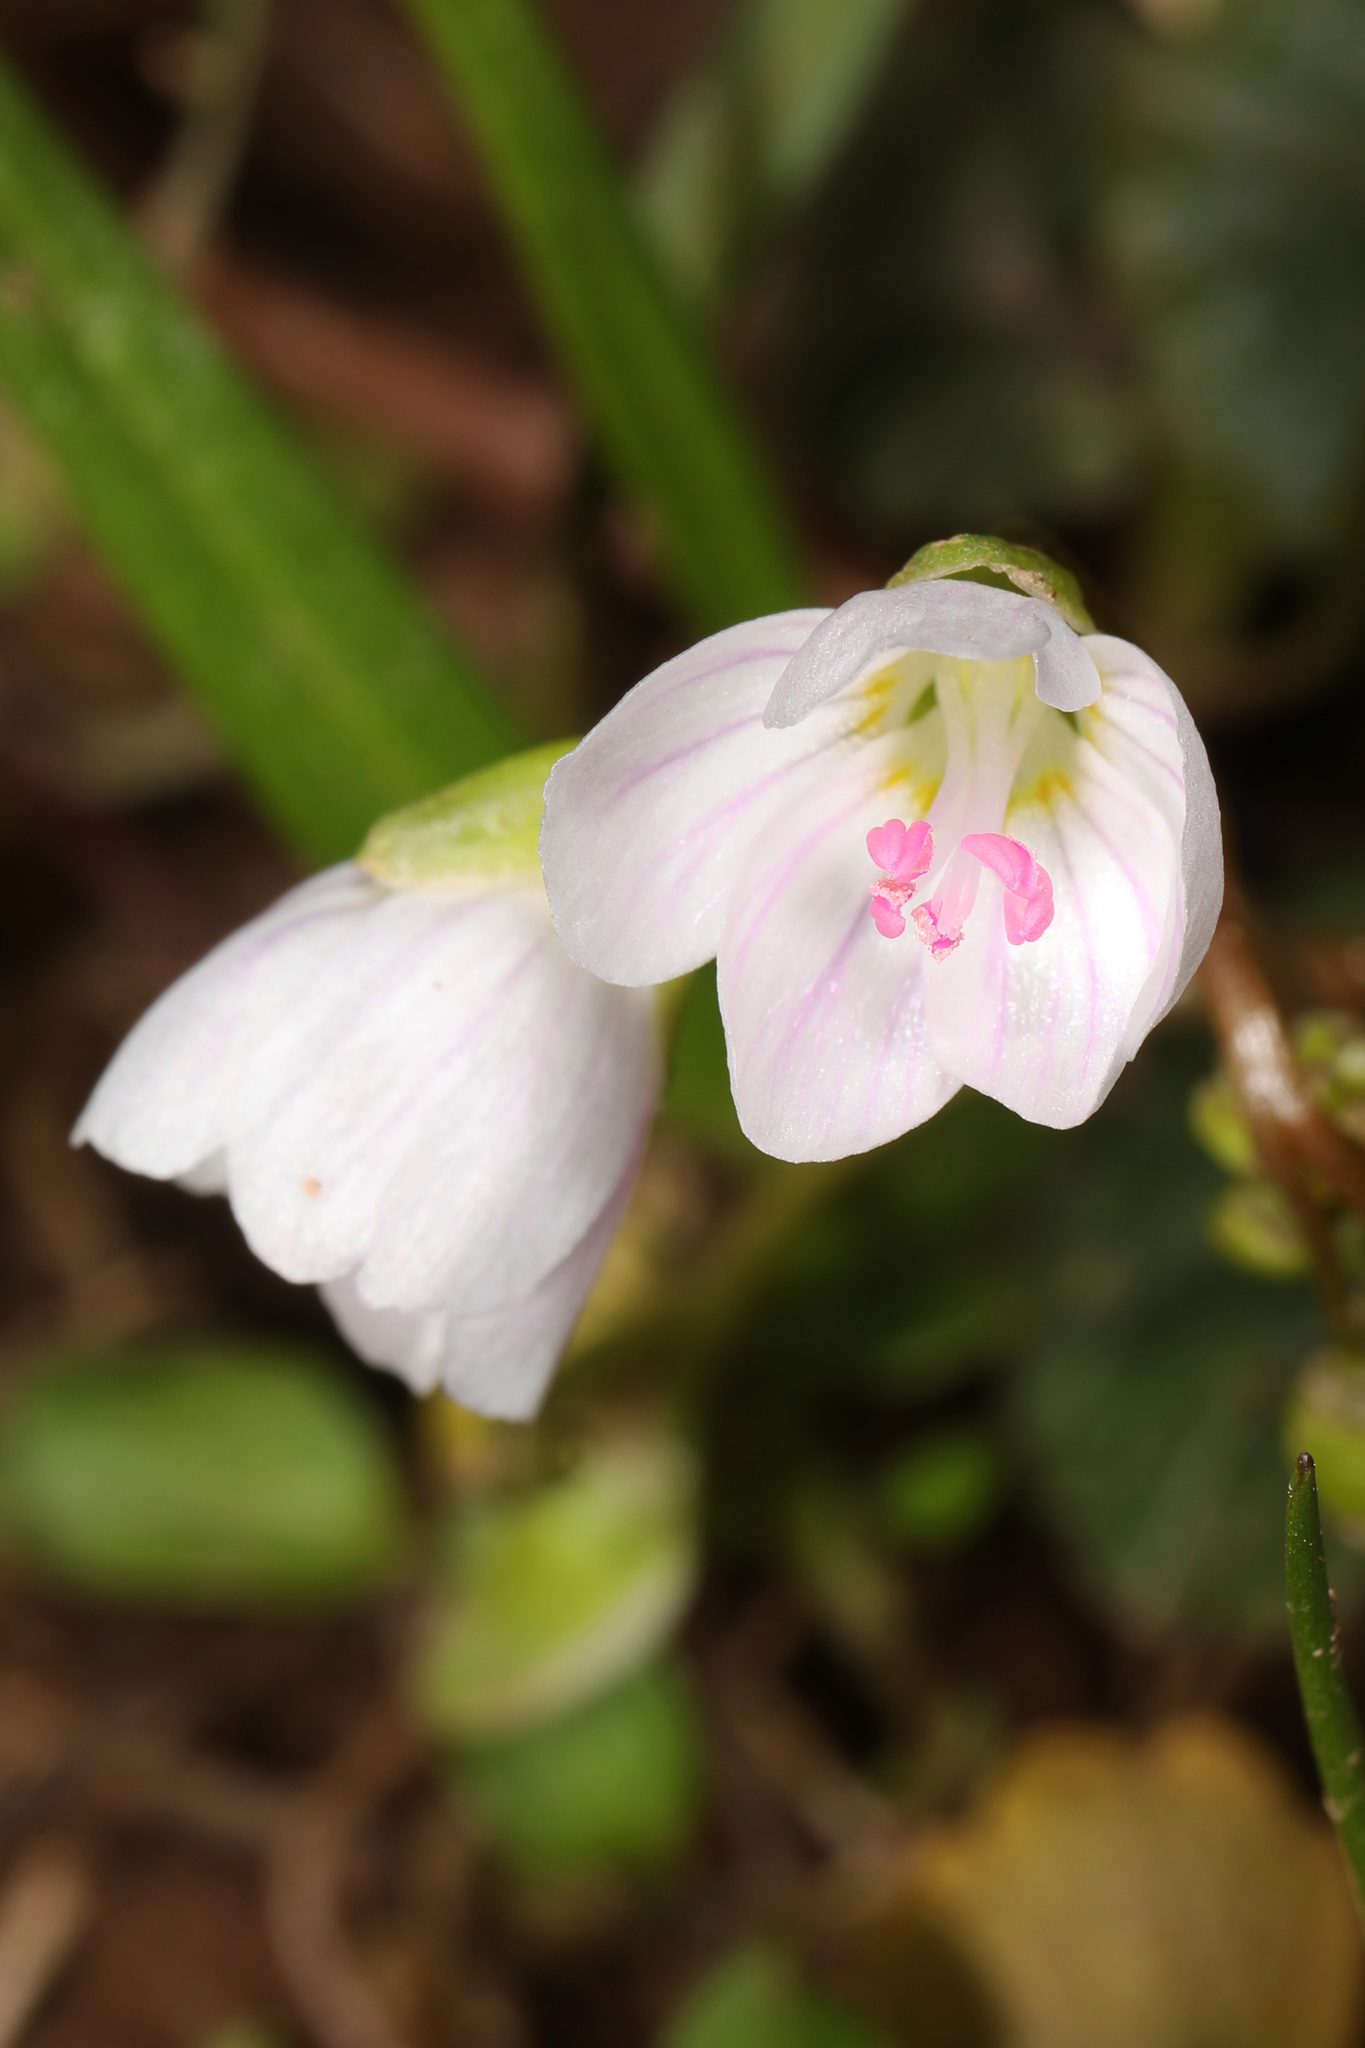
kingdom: Plantae
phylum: Tracheophyta
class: Magnoliopsida
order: Caryophyllales
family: Montiaceae
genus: Claytonia
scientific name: Claytonia virginica
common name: Virginia springbeauty
